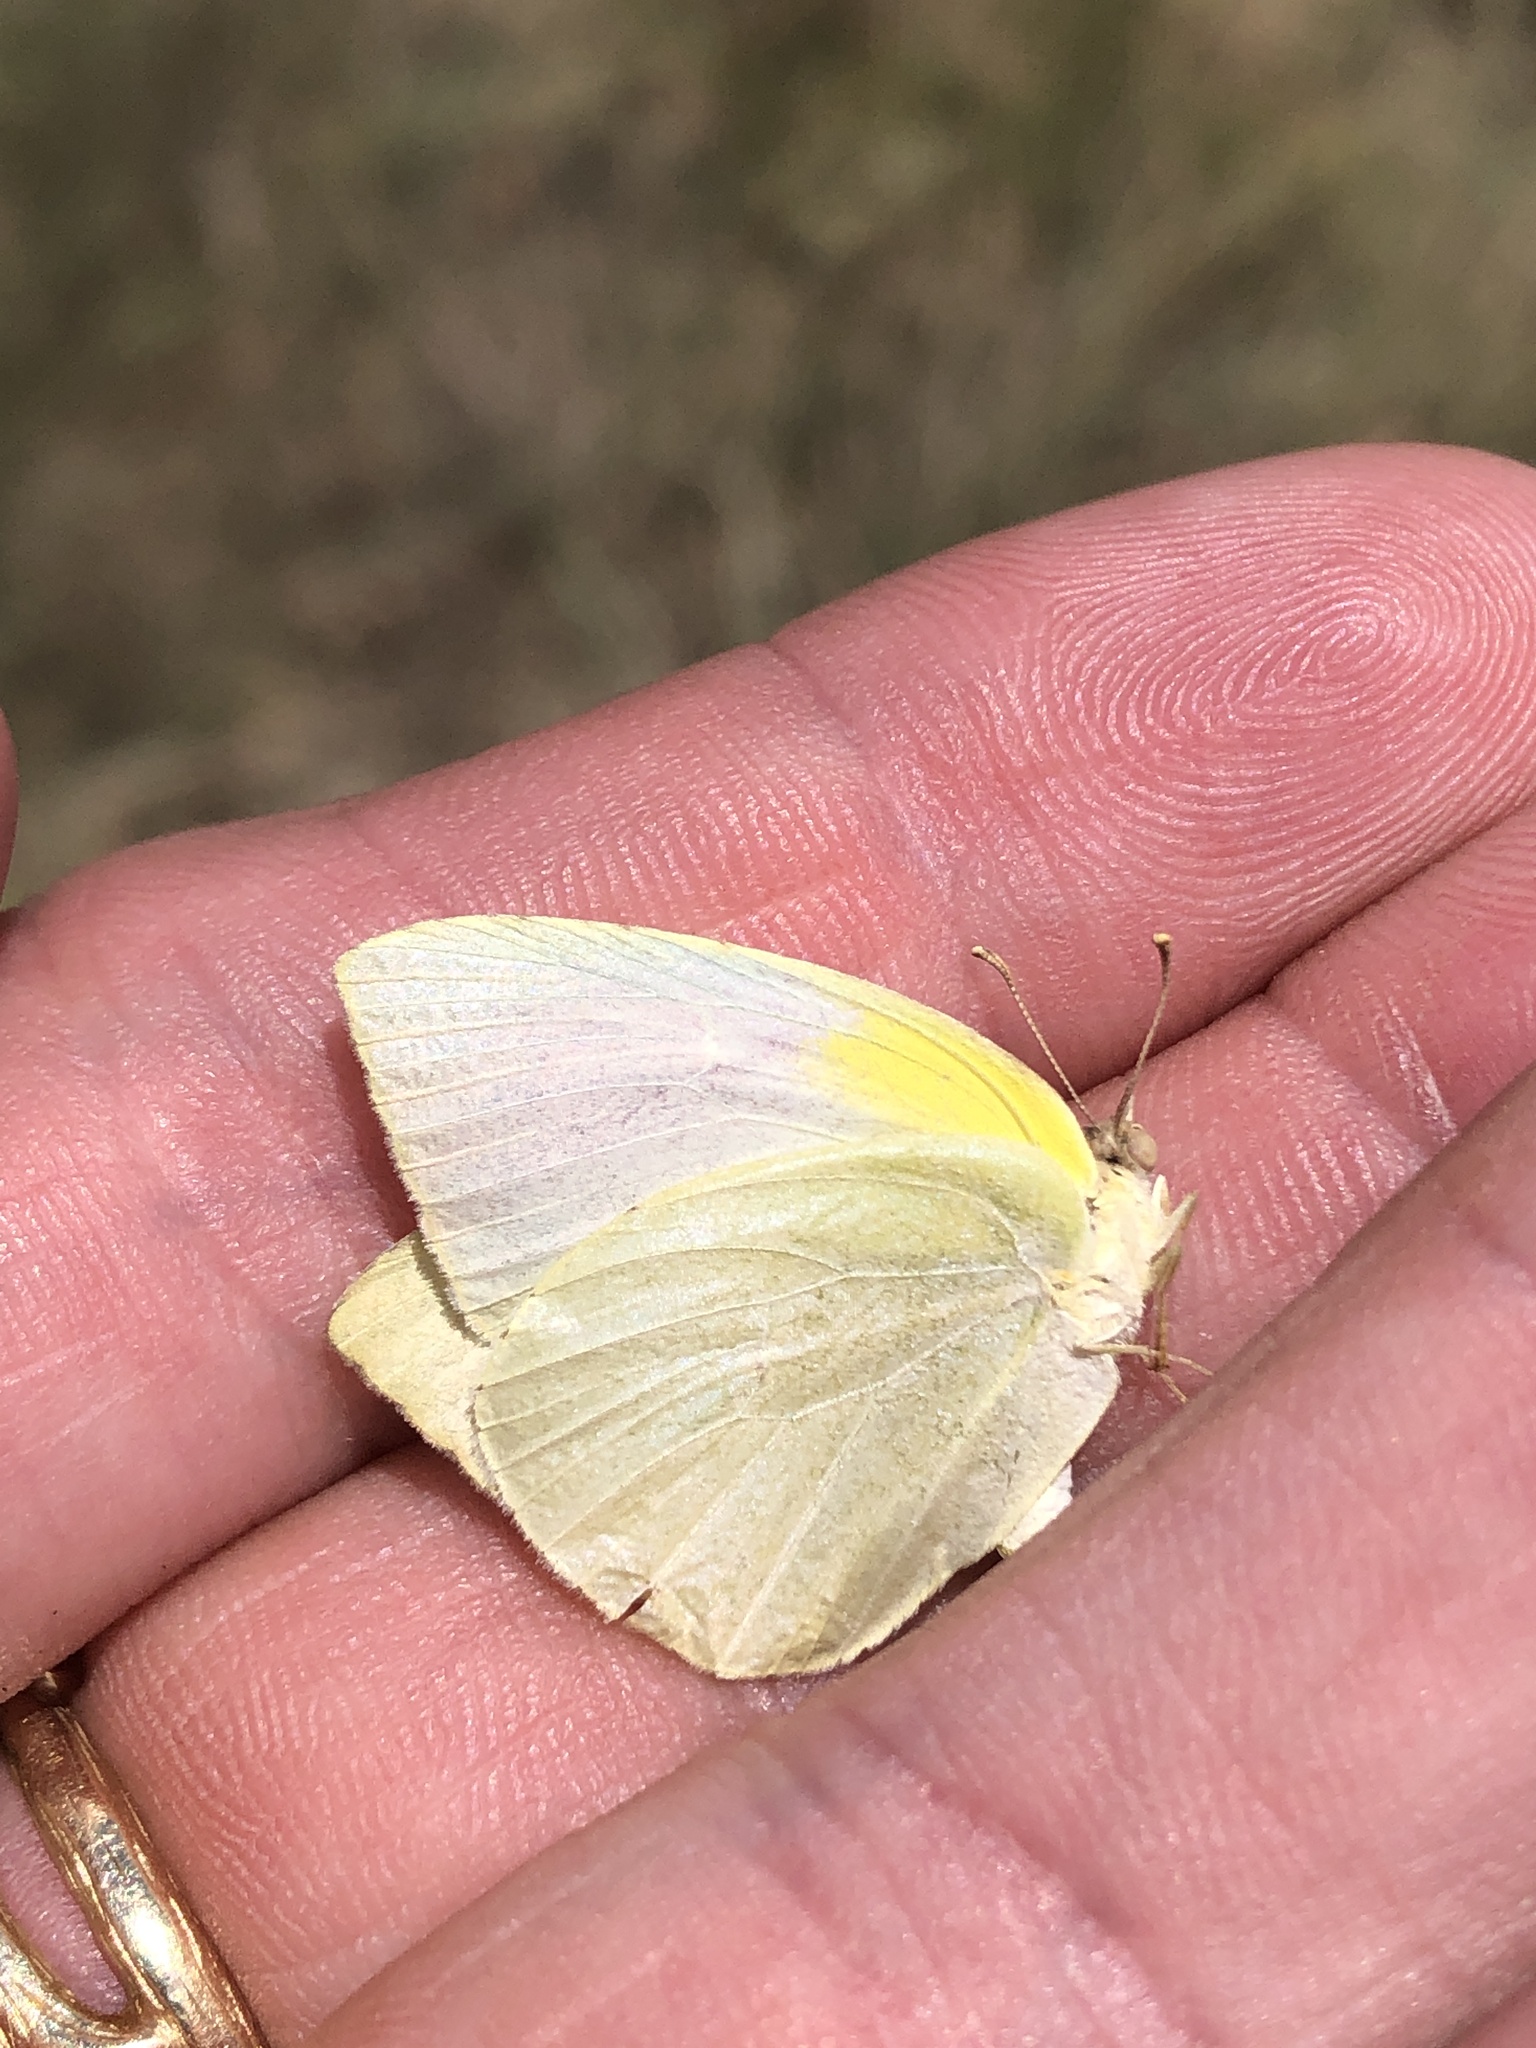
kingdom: Animalia
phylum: Arthropoda
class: Insecta
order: Lepidoptera
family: Pieridae
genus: Kricogonia
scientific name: Kricogonia lyside
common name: Guayacan sulphur,
